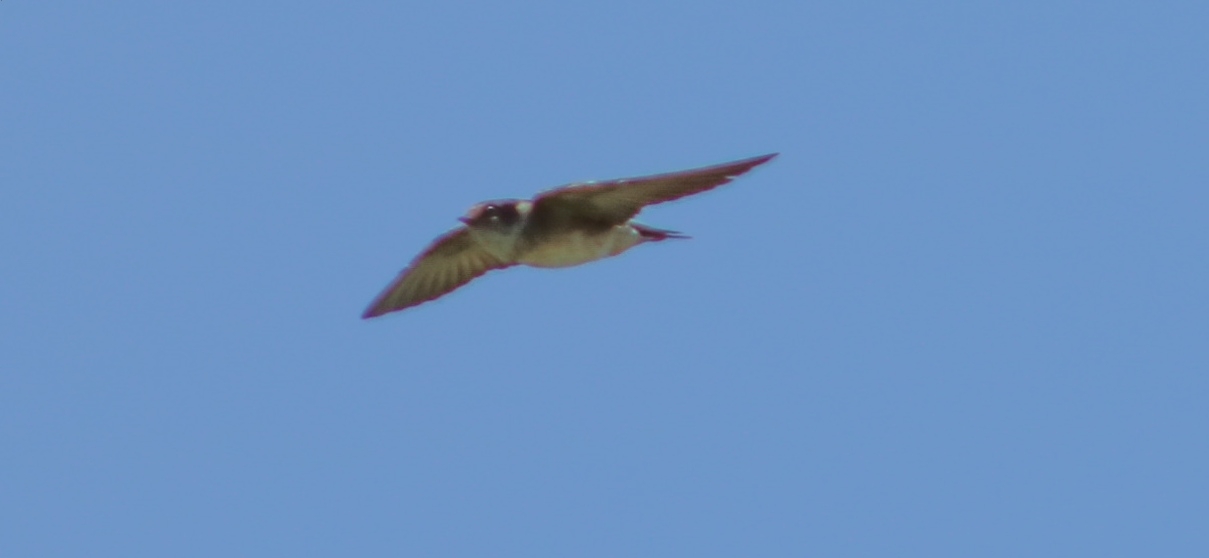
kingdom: Animalia
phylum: Chordata
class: Aves
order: Passeriformes
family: Hirundinidae
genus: Petrochelidon
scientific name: Petrochelidon nigricans
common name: Tree martin
